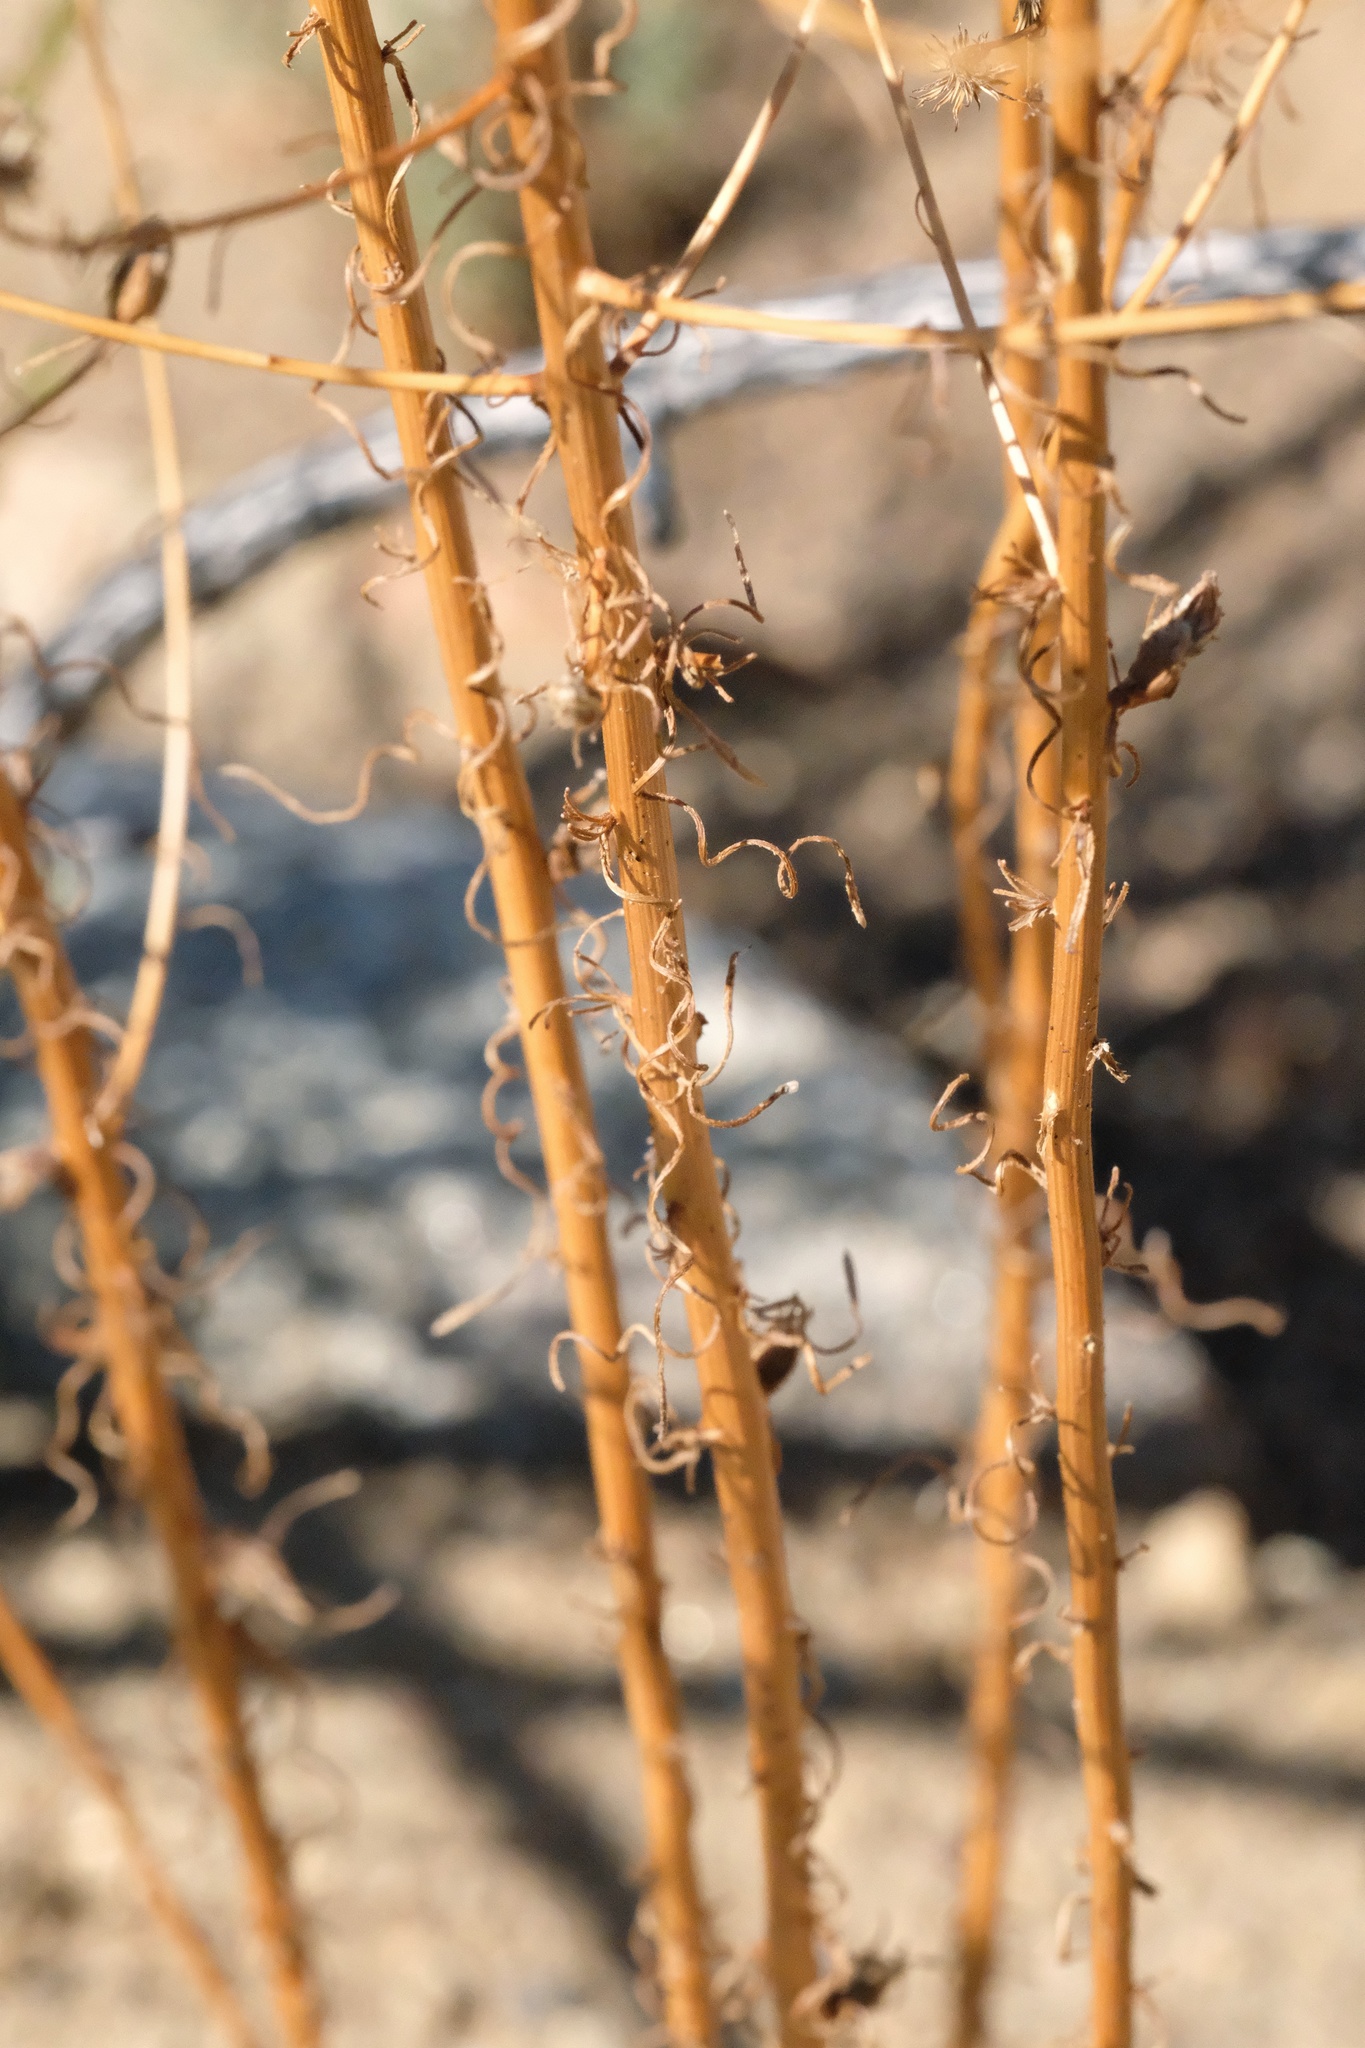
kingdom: Animalia
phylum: Arthropoda
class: Insecta
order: Diptera
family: Cecidomyiidae
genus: Rhopalomyia
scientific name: Rhopalomyia erigerontis
